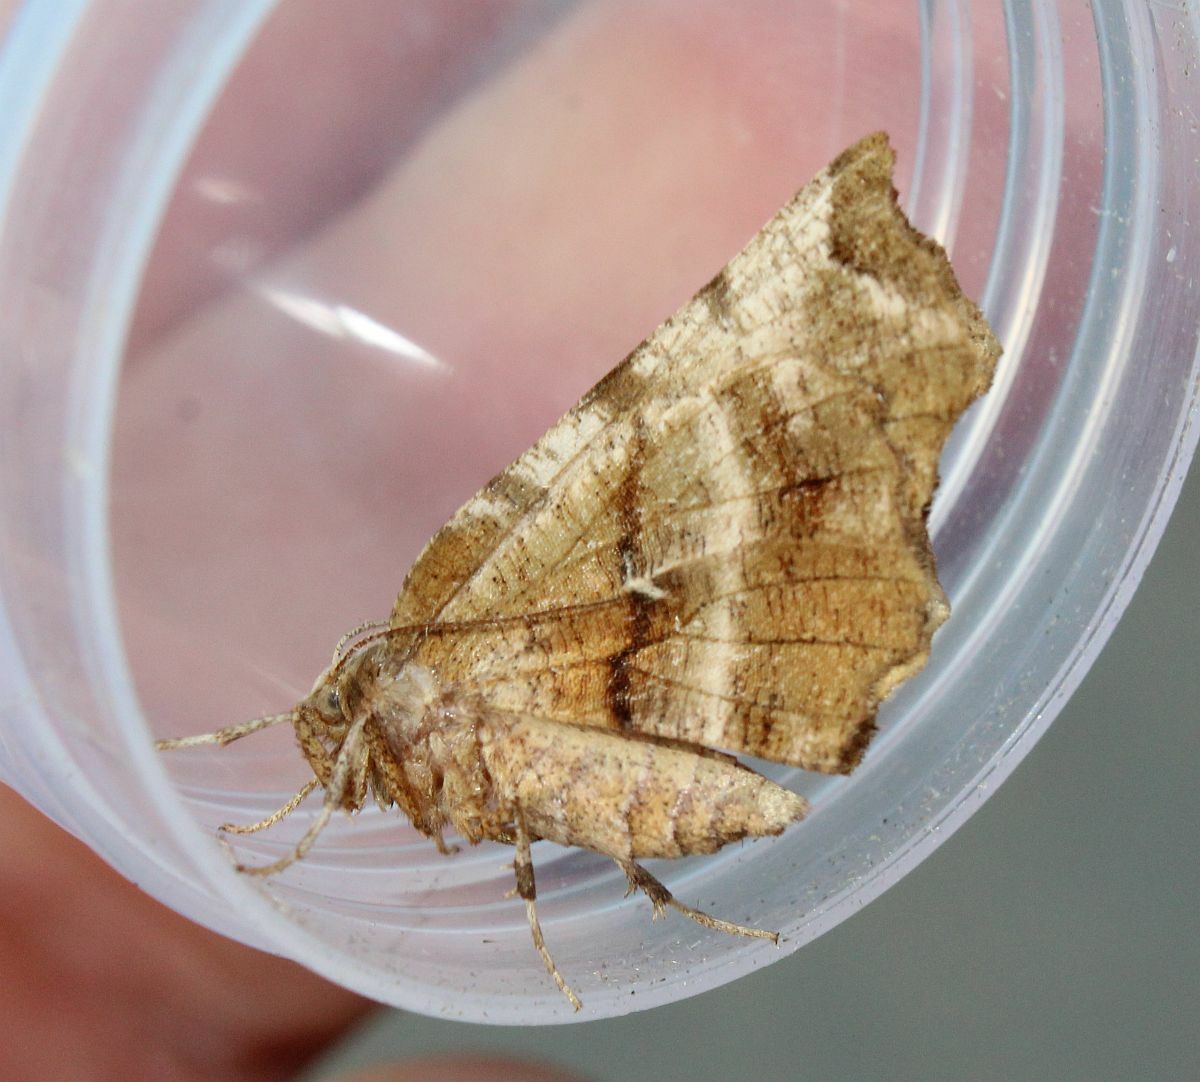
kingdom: Animalia
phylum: Arthropoda
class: Insecta
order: Lepidoptera
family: Geometridae
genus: Selenia
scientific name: Selenia dentaria
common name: Early thorn
